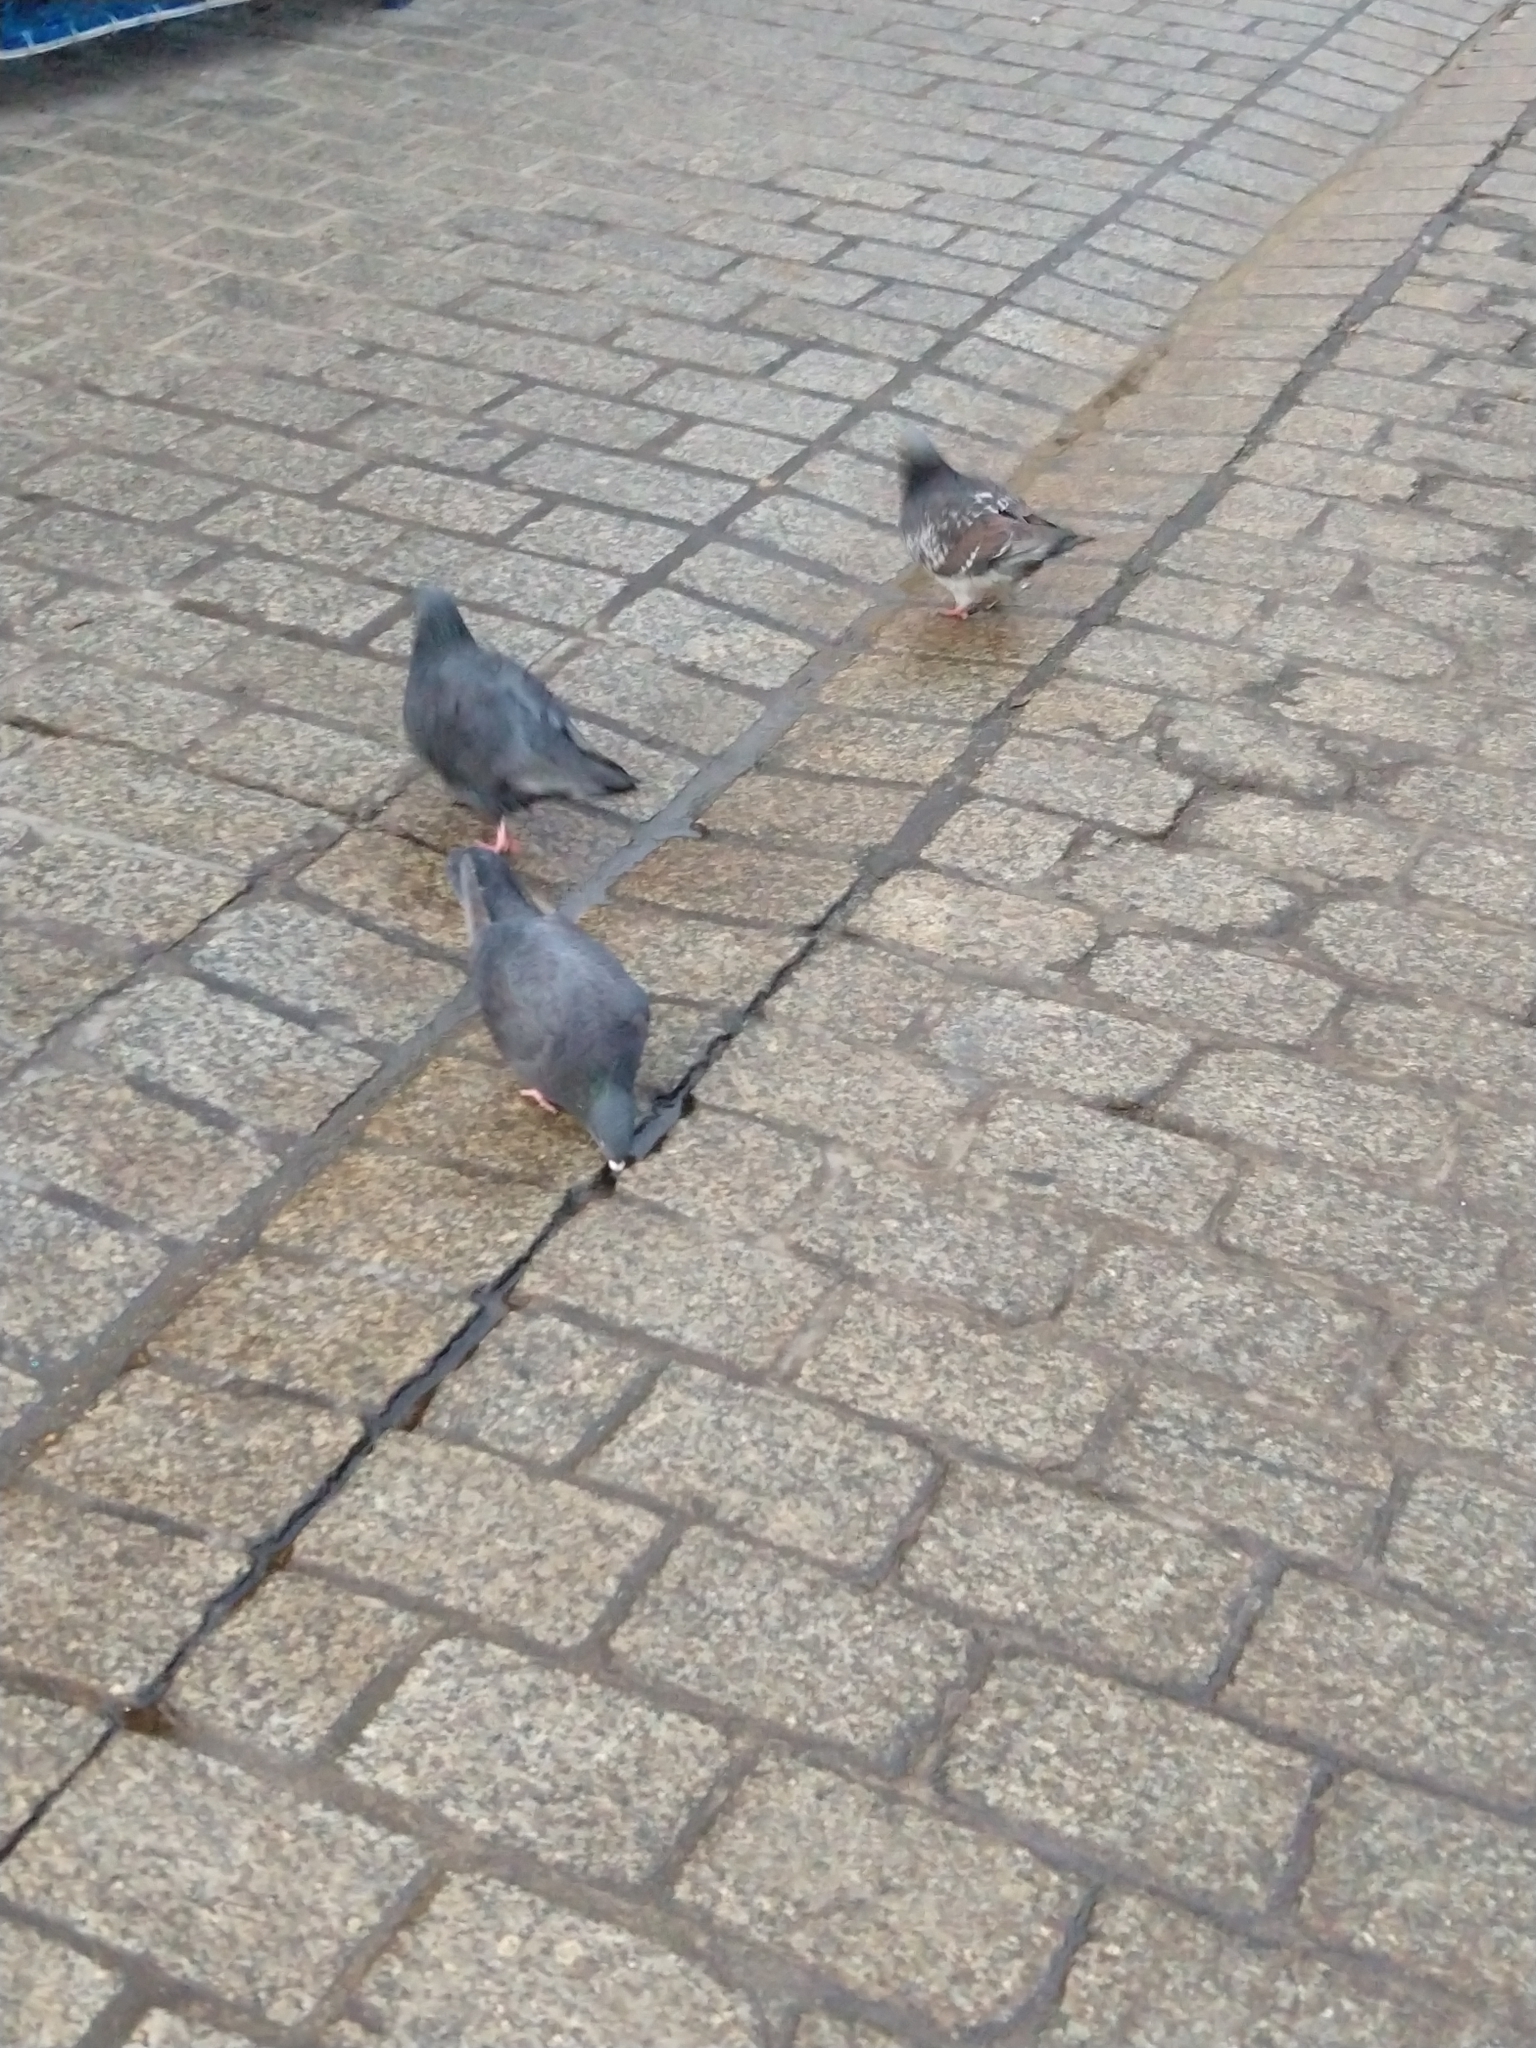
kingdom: Animalia
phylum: Chordata
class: Aves
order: Columbiformes
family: Columbidae
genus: Columba
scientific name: Columba livia
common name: Rock pigeon
